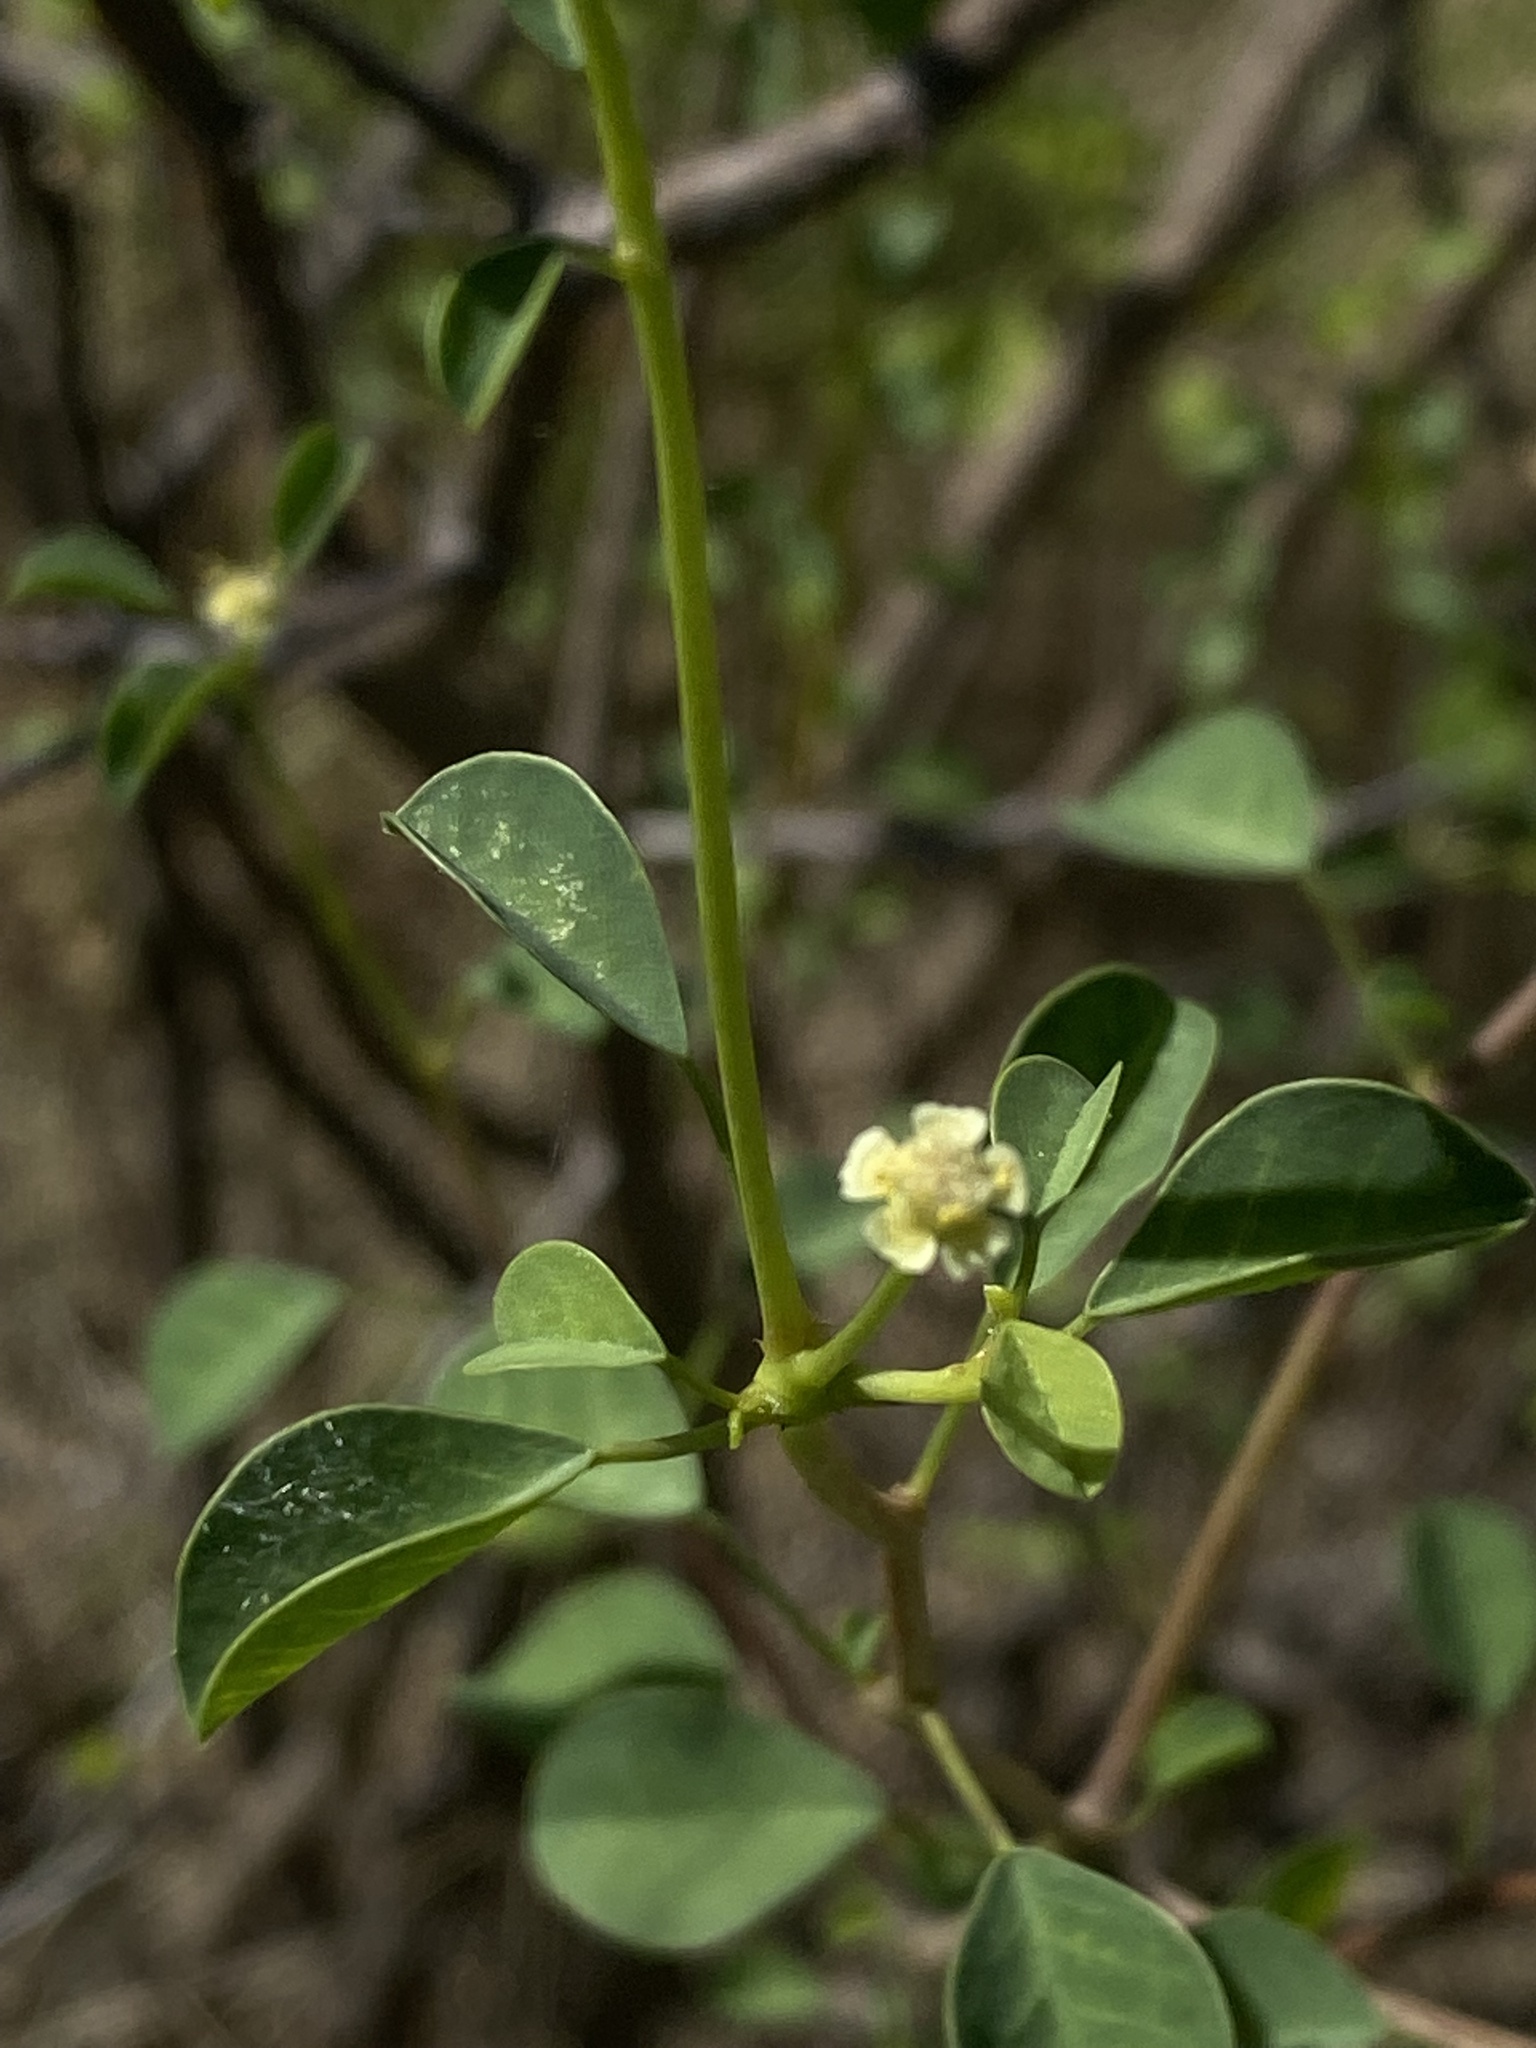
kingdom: Plantae
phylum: Tracheophyta
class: Magnoliopsida
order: Malpighiales
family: Euphorbiaceae
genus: Euphorbia
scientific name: Euphorbia californica
